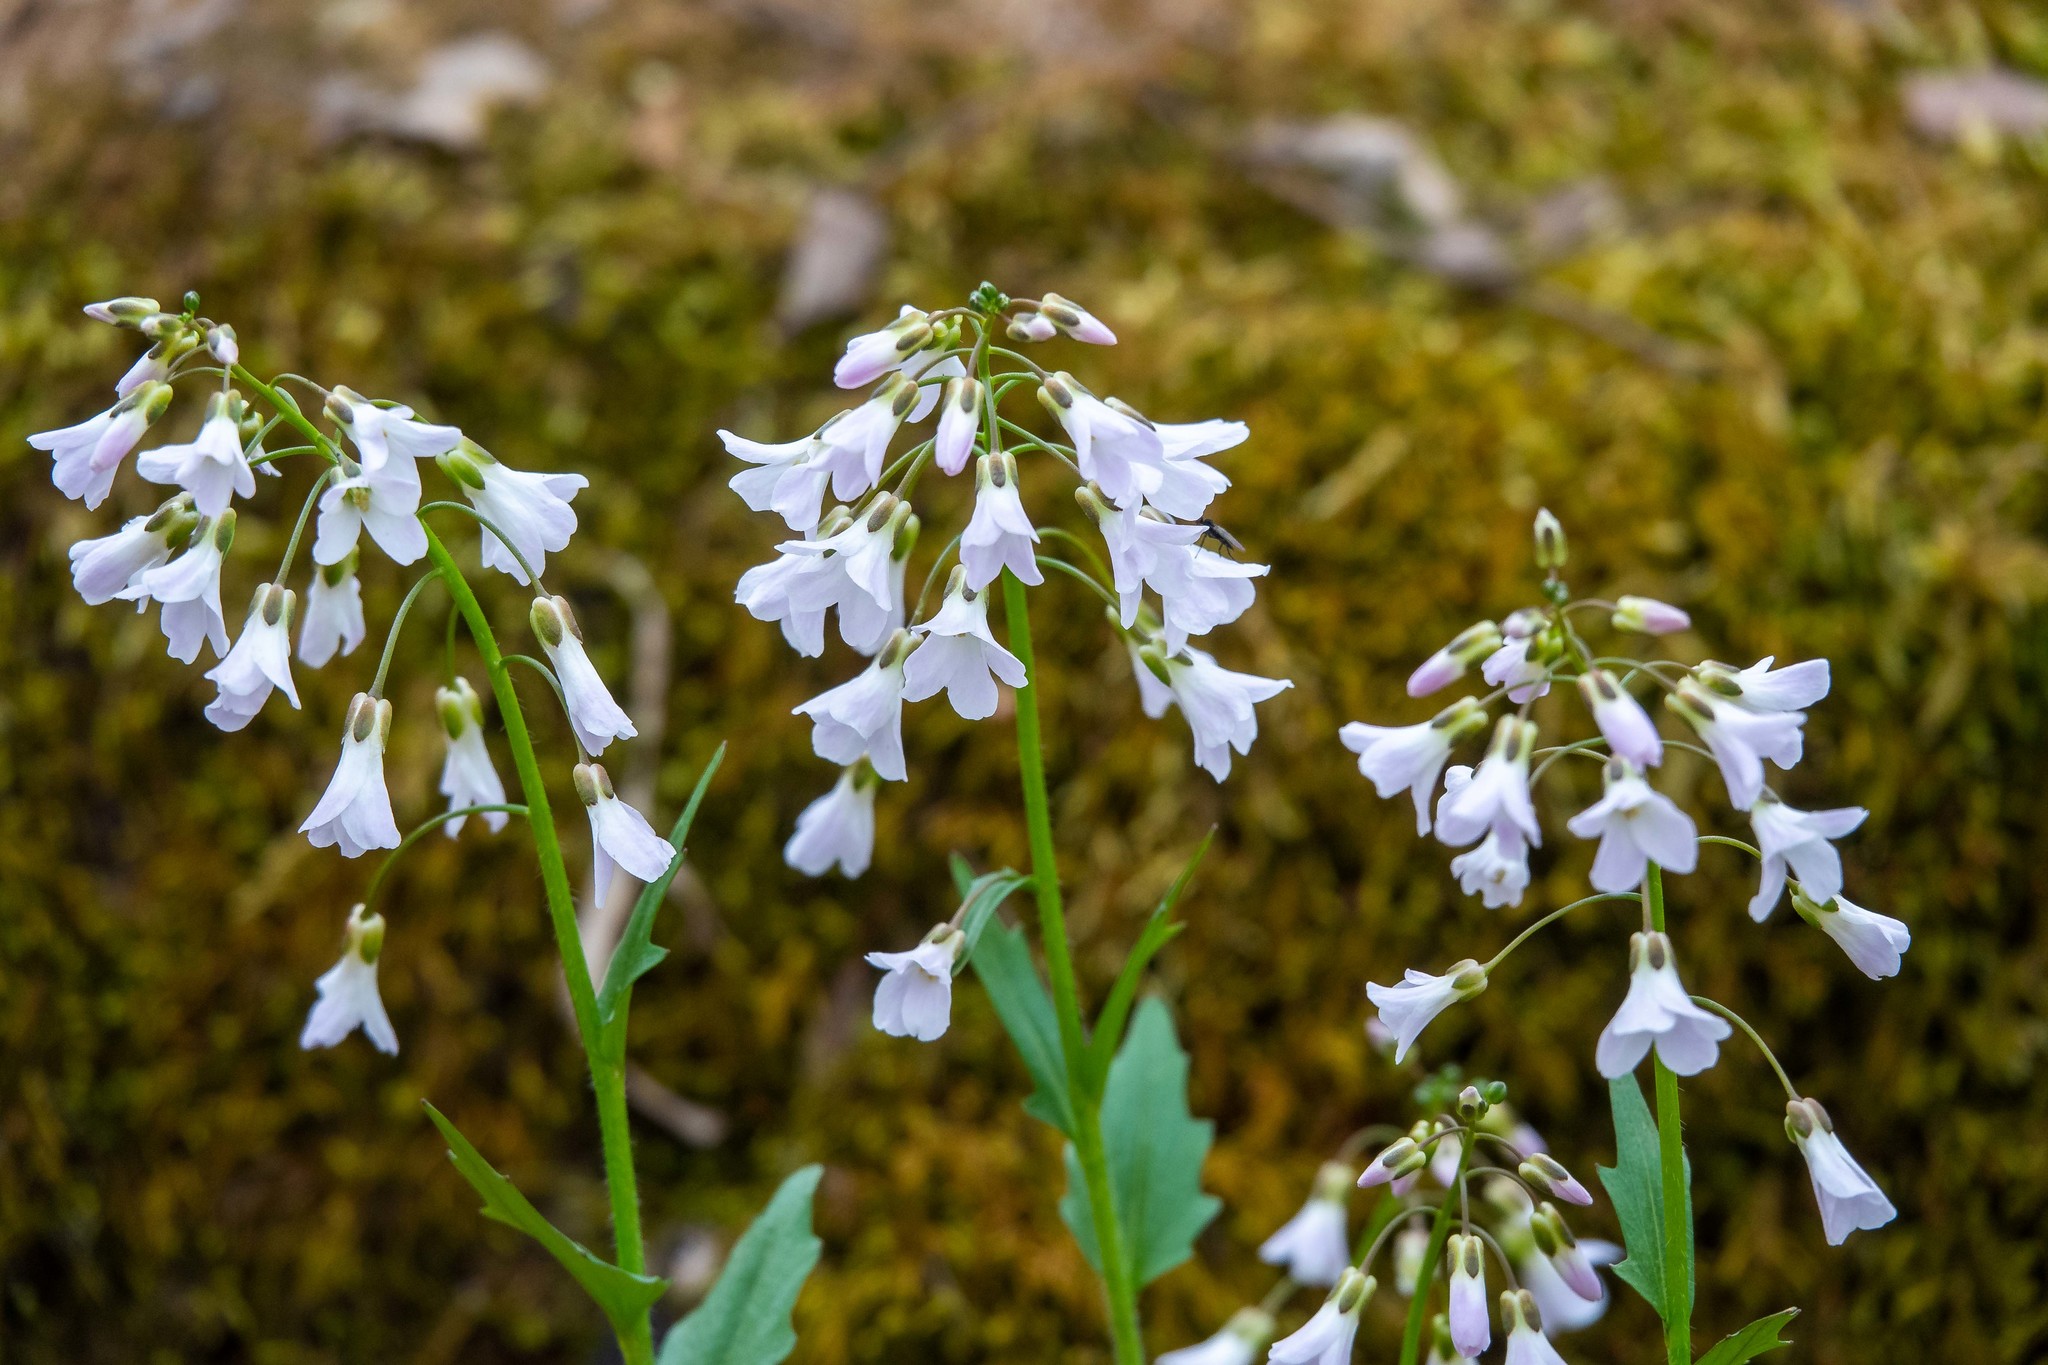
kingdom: Plantae
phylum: Tracheophyta
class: Magnoliopsida
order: Brassicales
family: Brassicaceae
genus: Cardamine
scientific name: Cardamine douglassii
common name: Purple cress
